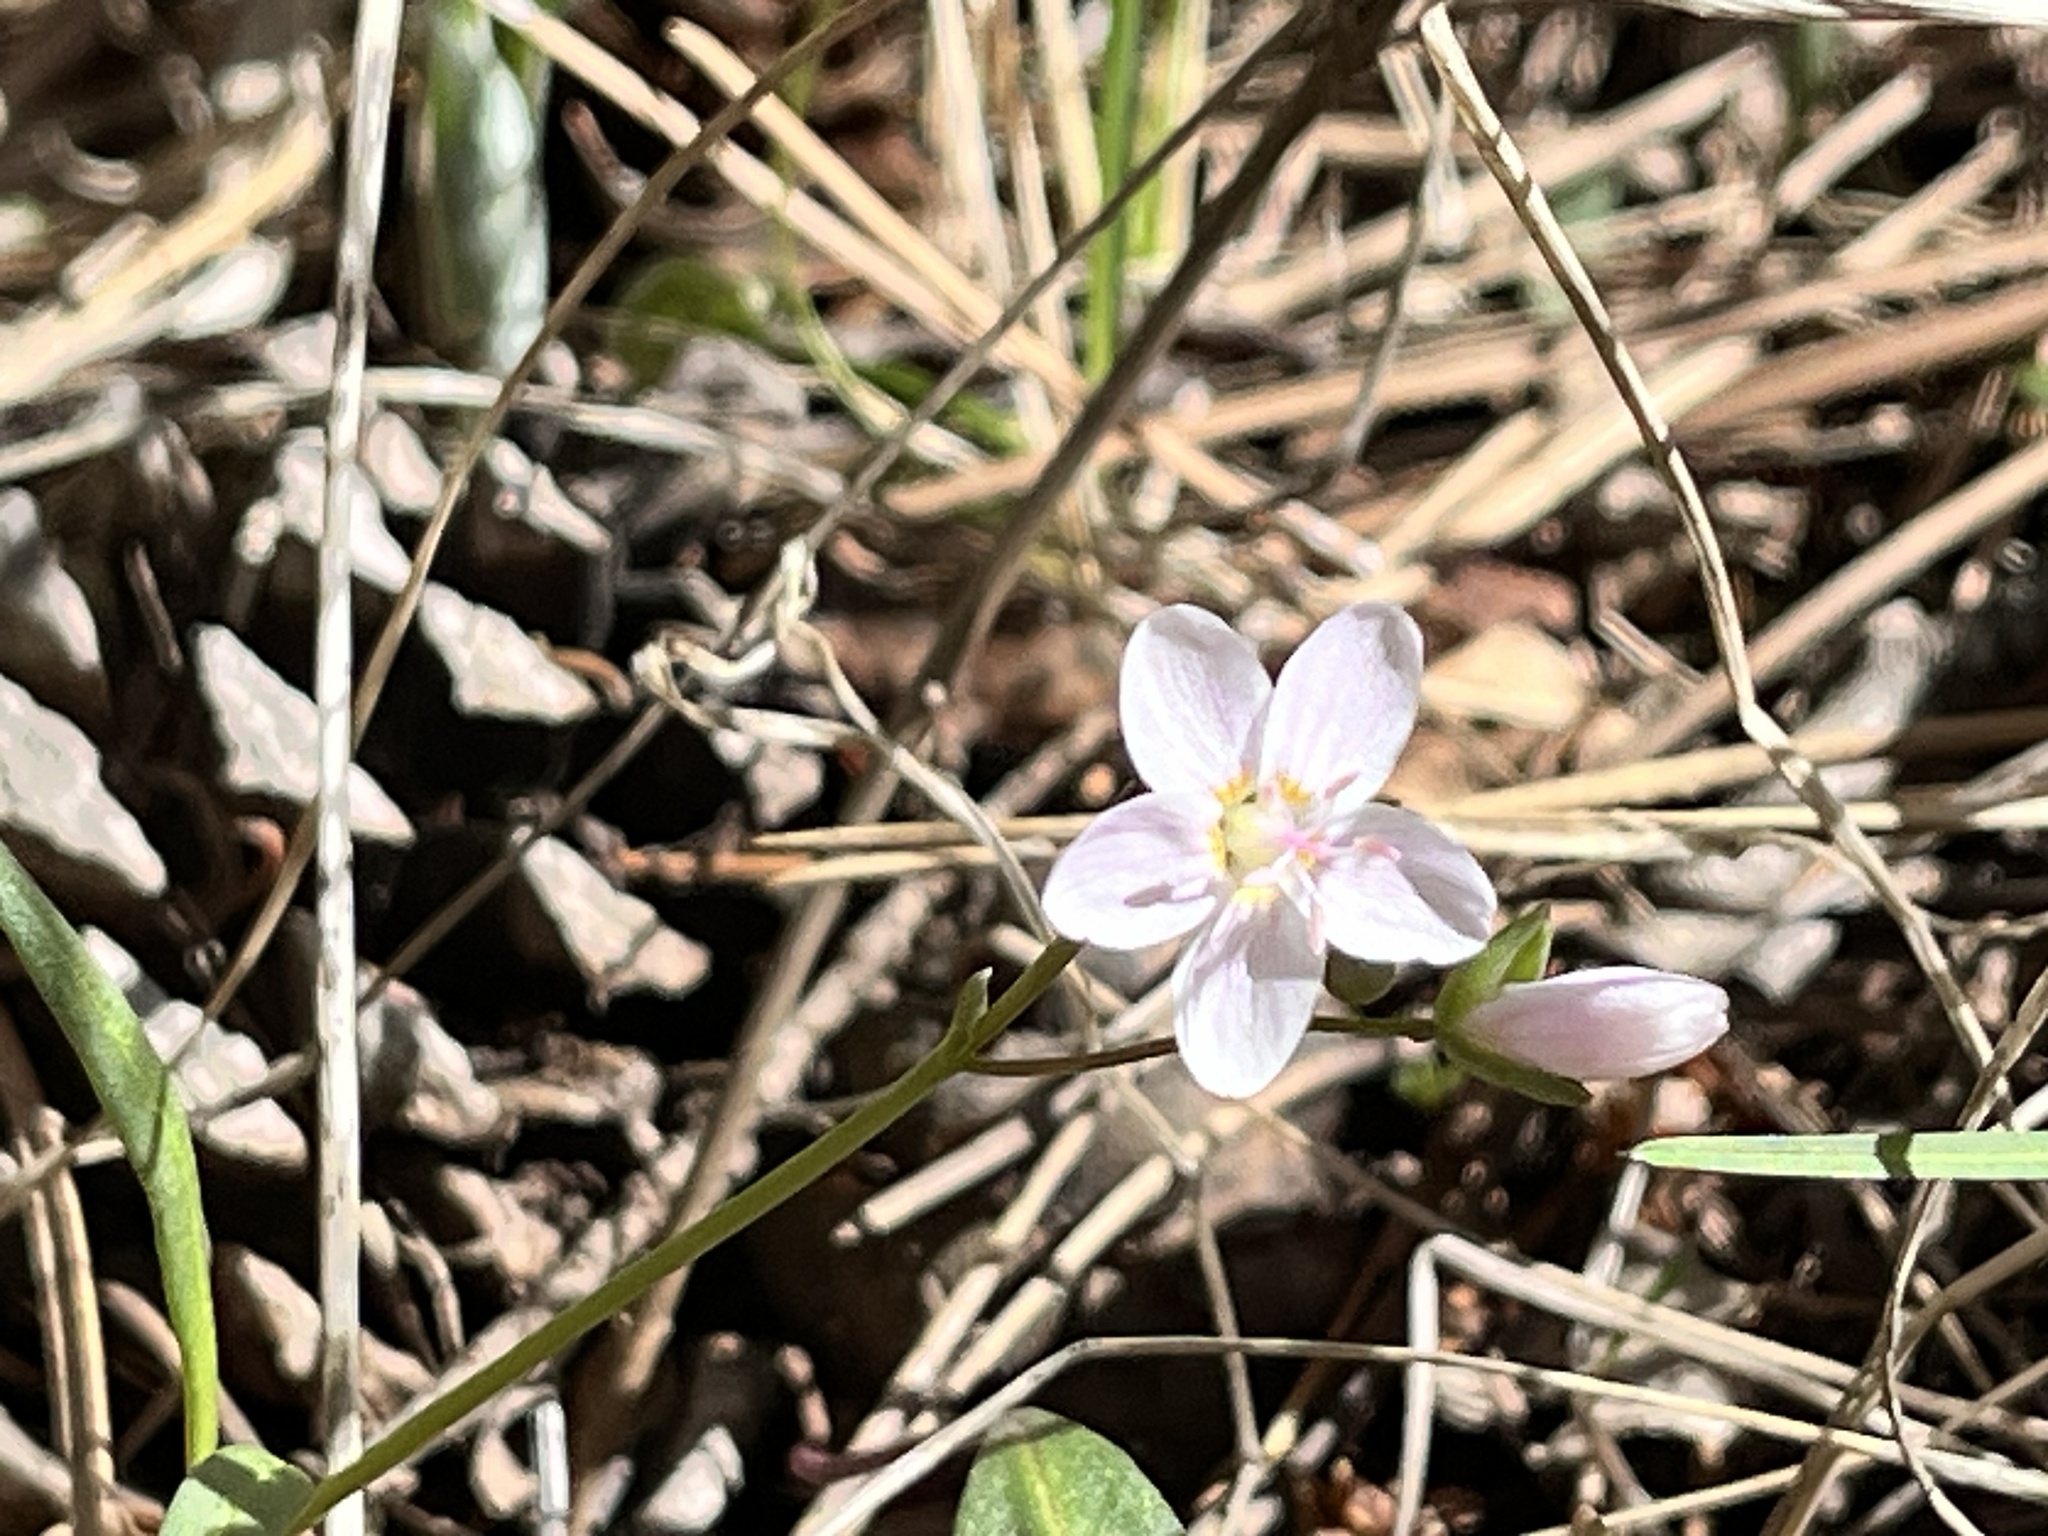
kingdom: Plantae
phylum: Tracheophyta
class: Magnoliopsida
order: Caryophyllales
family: Montiaceae
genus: Claytonia
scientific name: Claytonia rosea
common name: Rocky mountain spring-beauty
